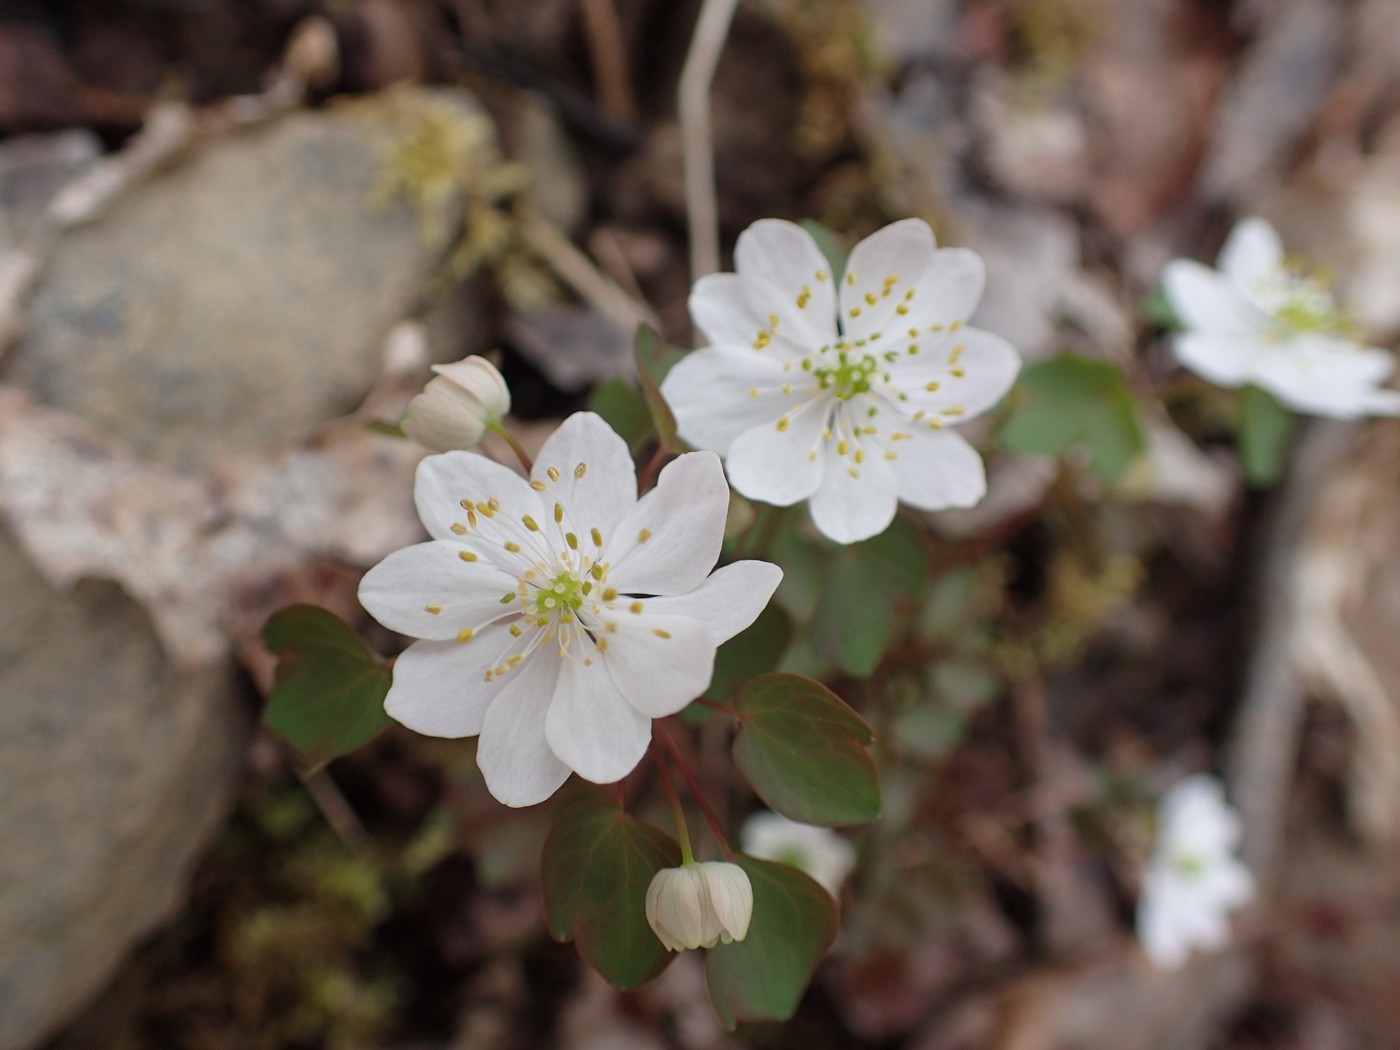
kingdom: Plantae
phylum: Tracheophyta
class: Magnoliopsida
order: Ranunculales
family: Ranunculaceae
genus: Thalictrum
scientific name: Thalictrum thalictroides
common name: Rue-anemone
